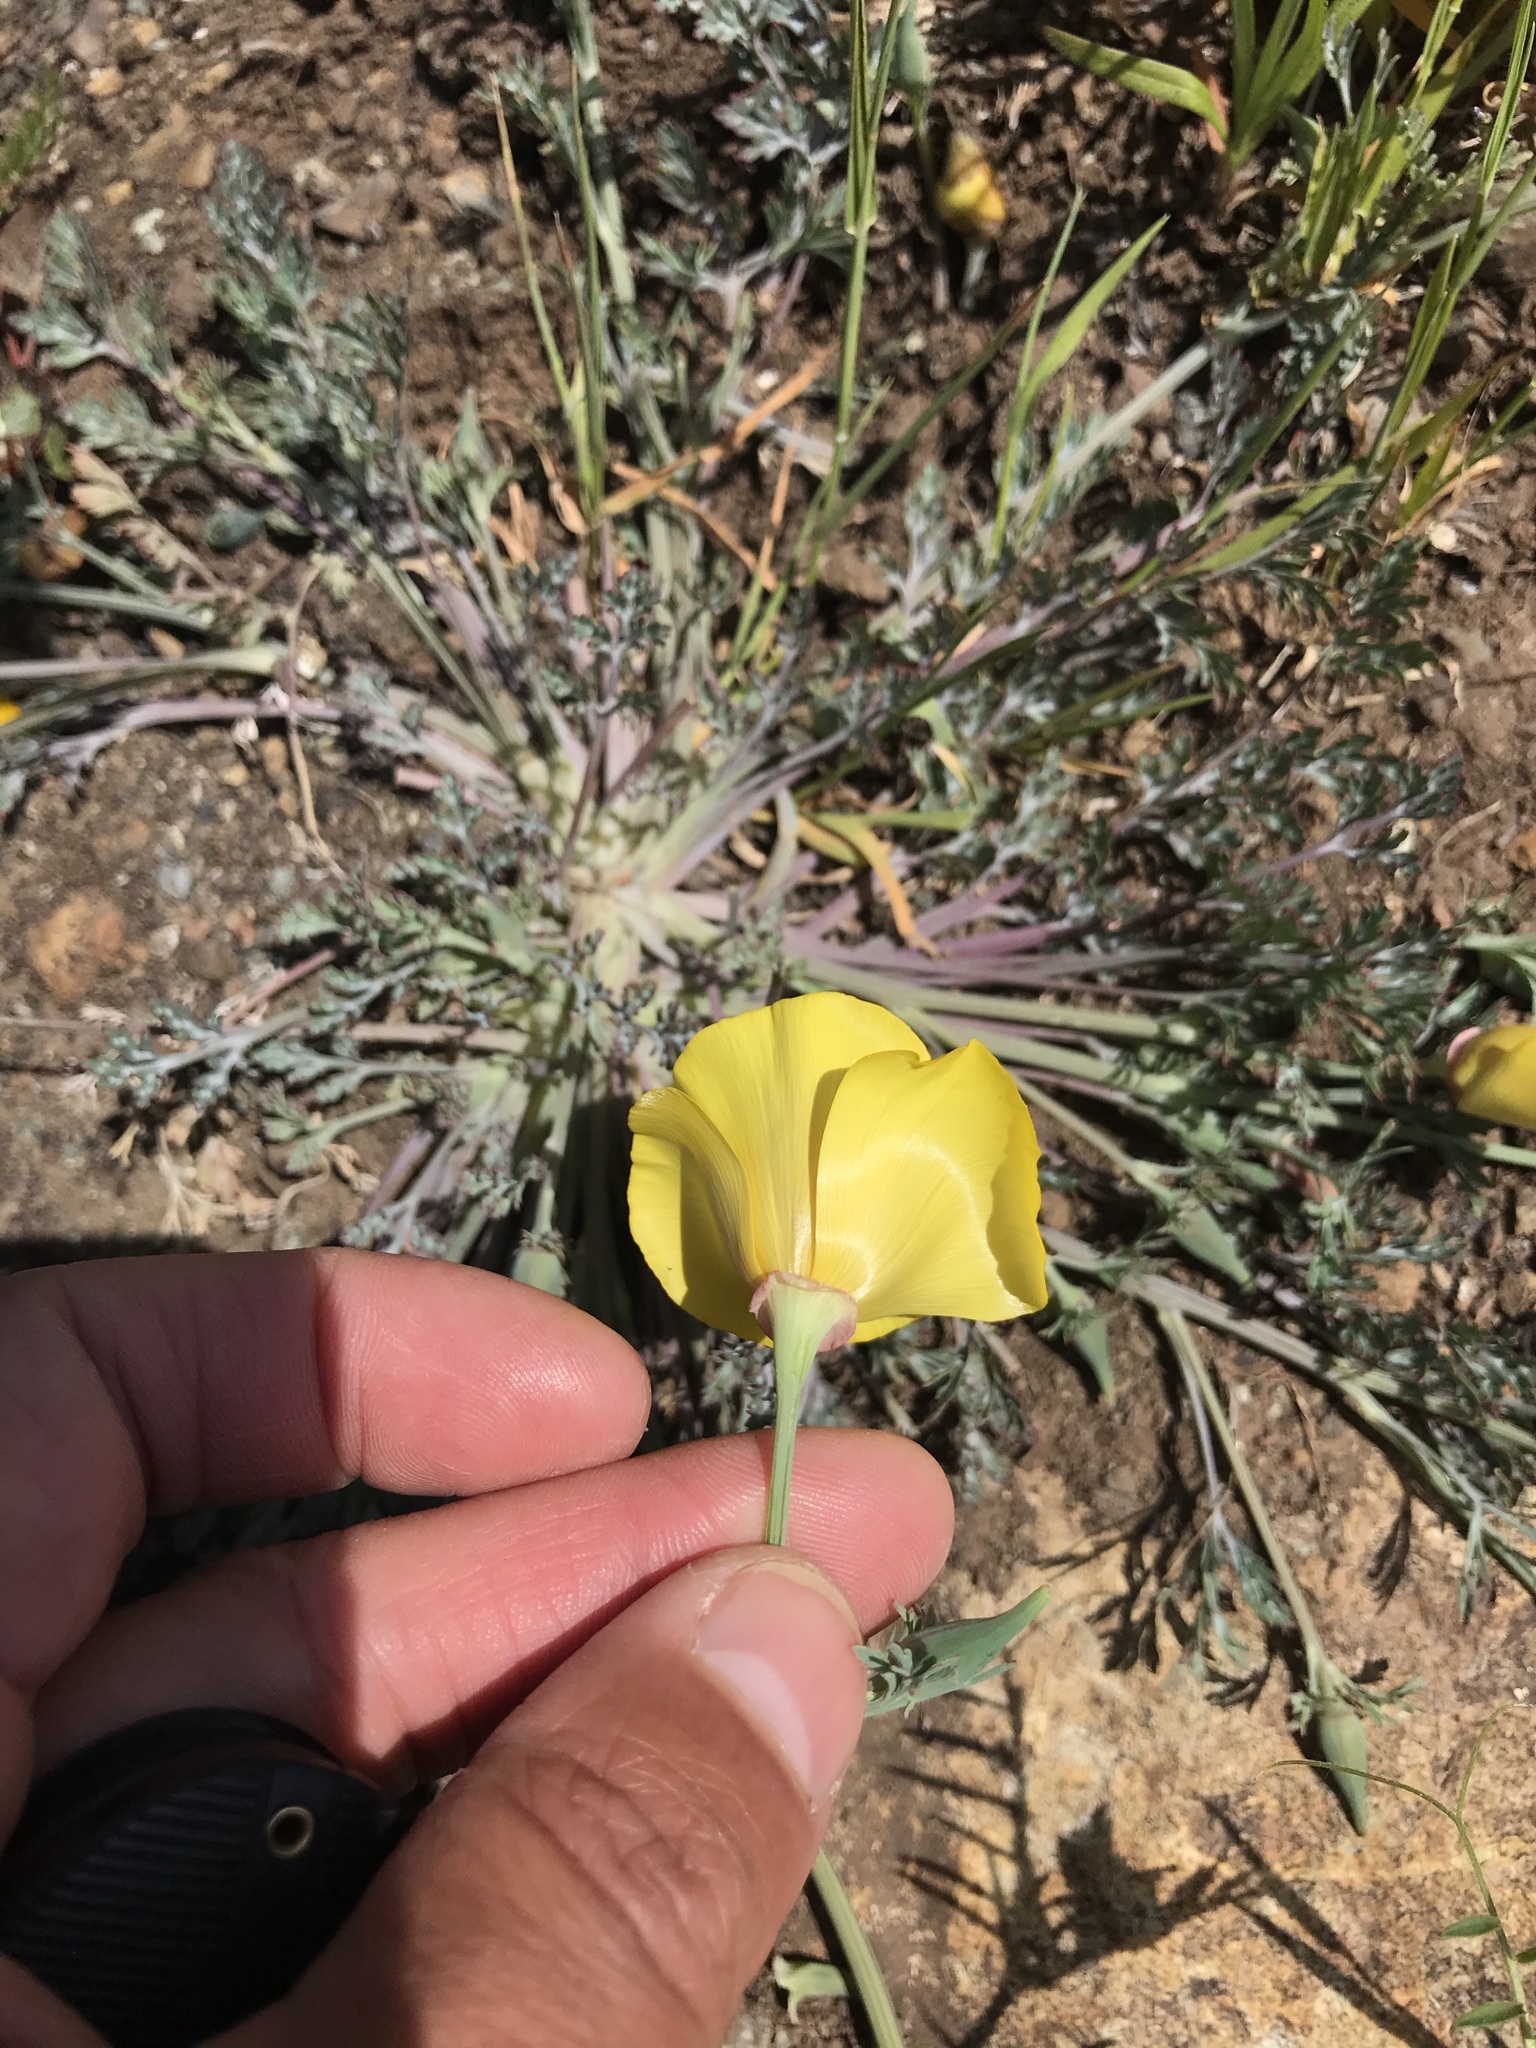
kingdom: Plantae
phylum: Tracheophyta
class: Magnoliopsida
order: Ranunculales
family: Papaveraceae
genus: Eschscholzia
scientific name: Eschscholzia californica
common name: California poppy
